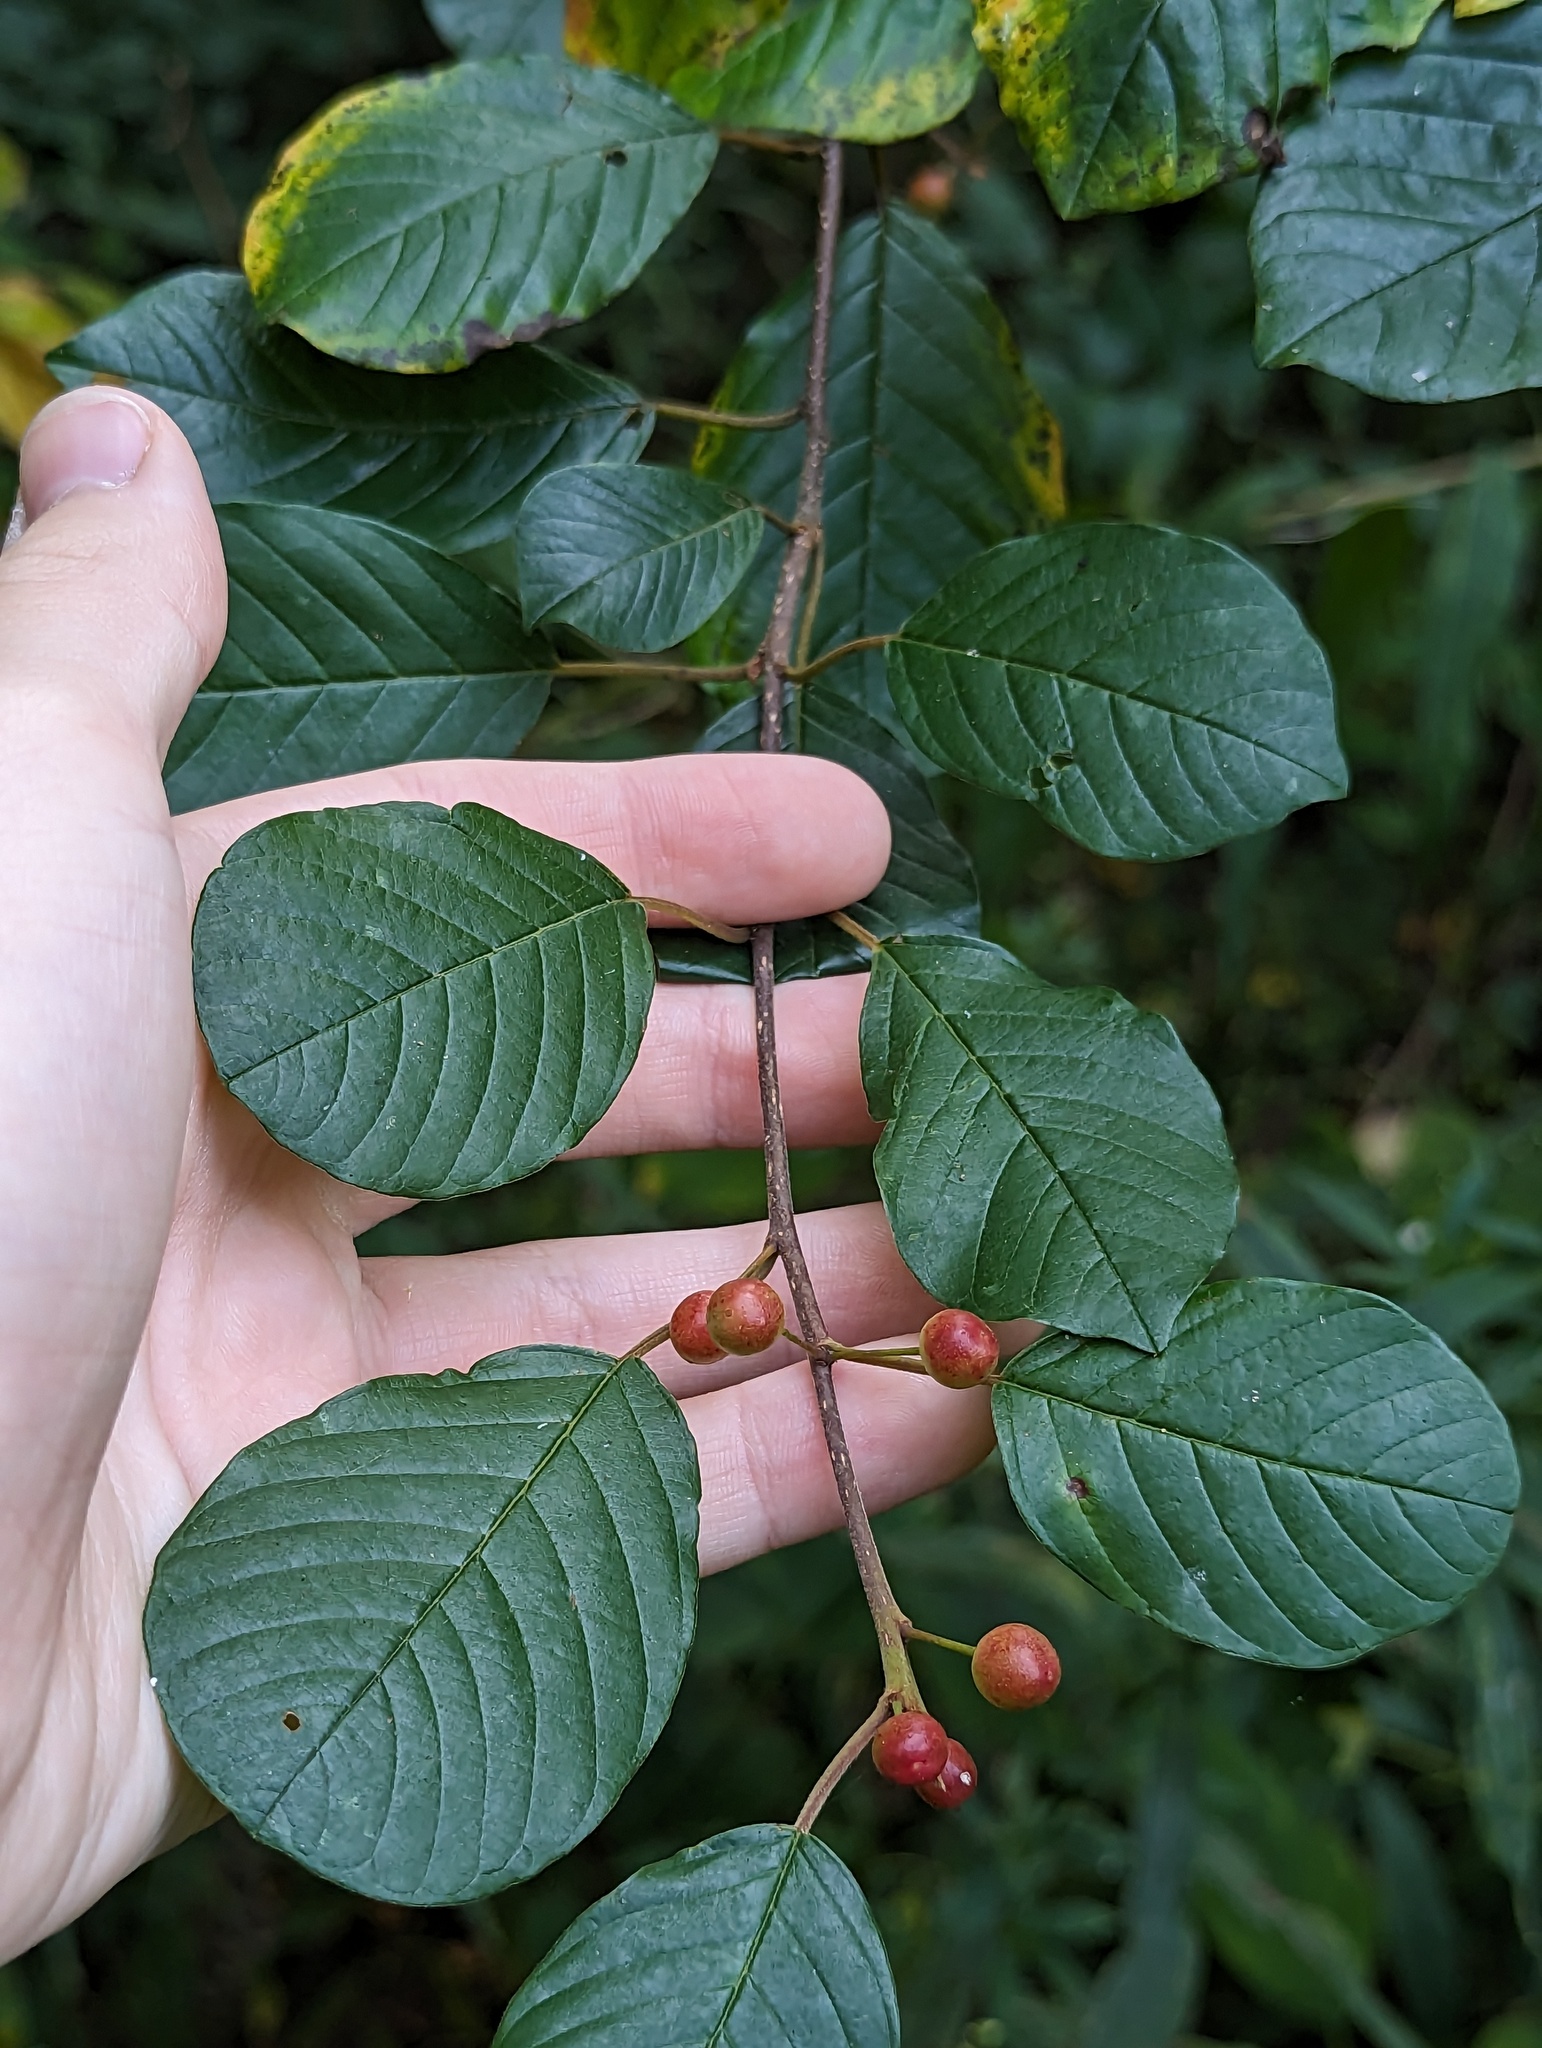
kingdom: Plantae
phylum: Tracheophyta
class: Magnoliopsida
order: Rosales
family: Rhamnaceae
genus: Frangula
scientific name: Frangula alnus
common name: Alder buckthorn
